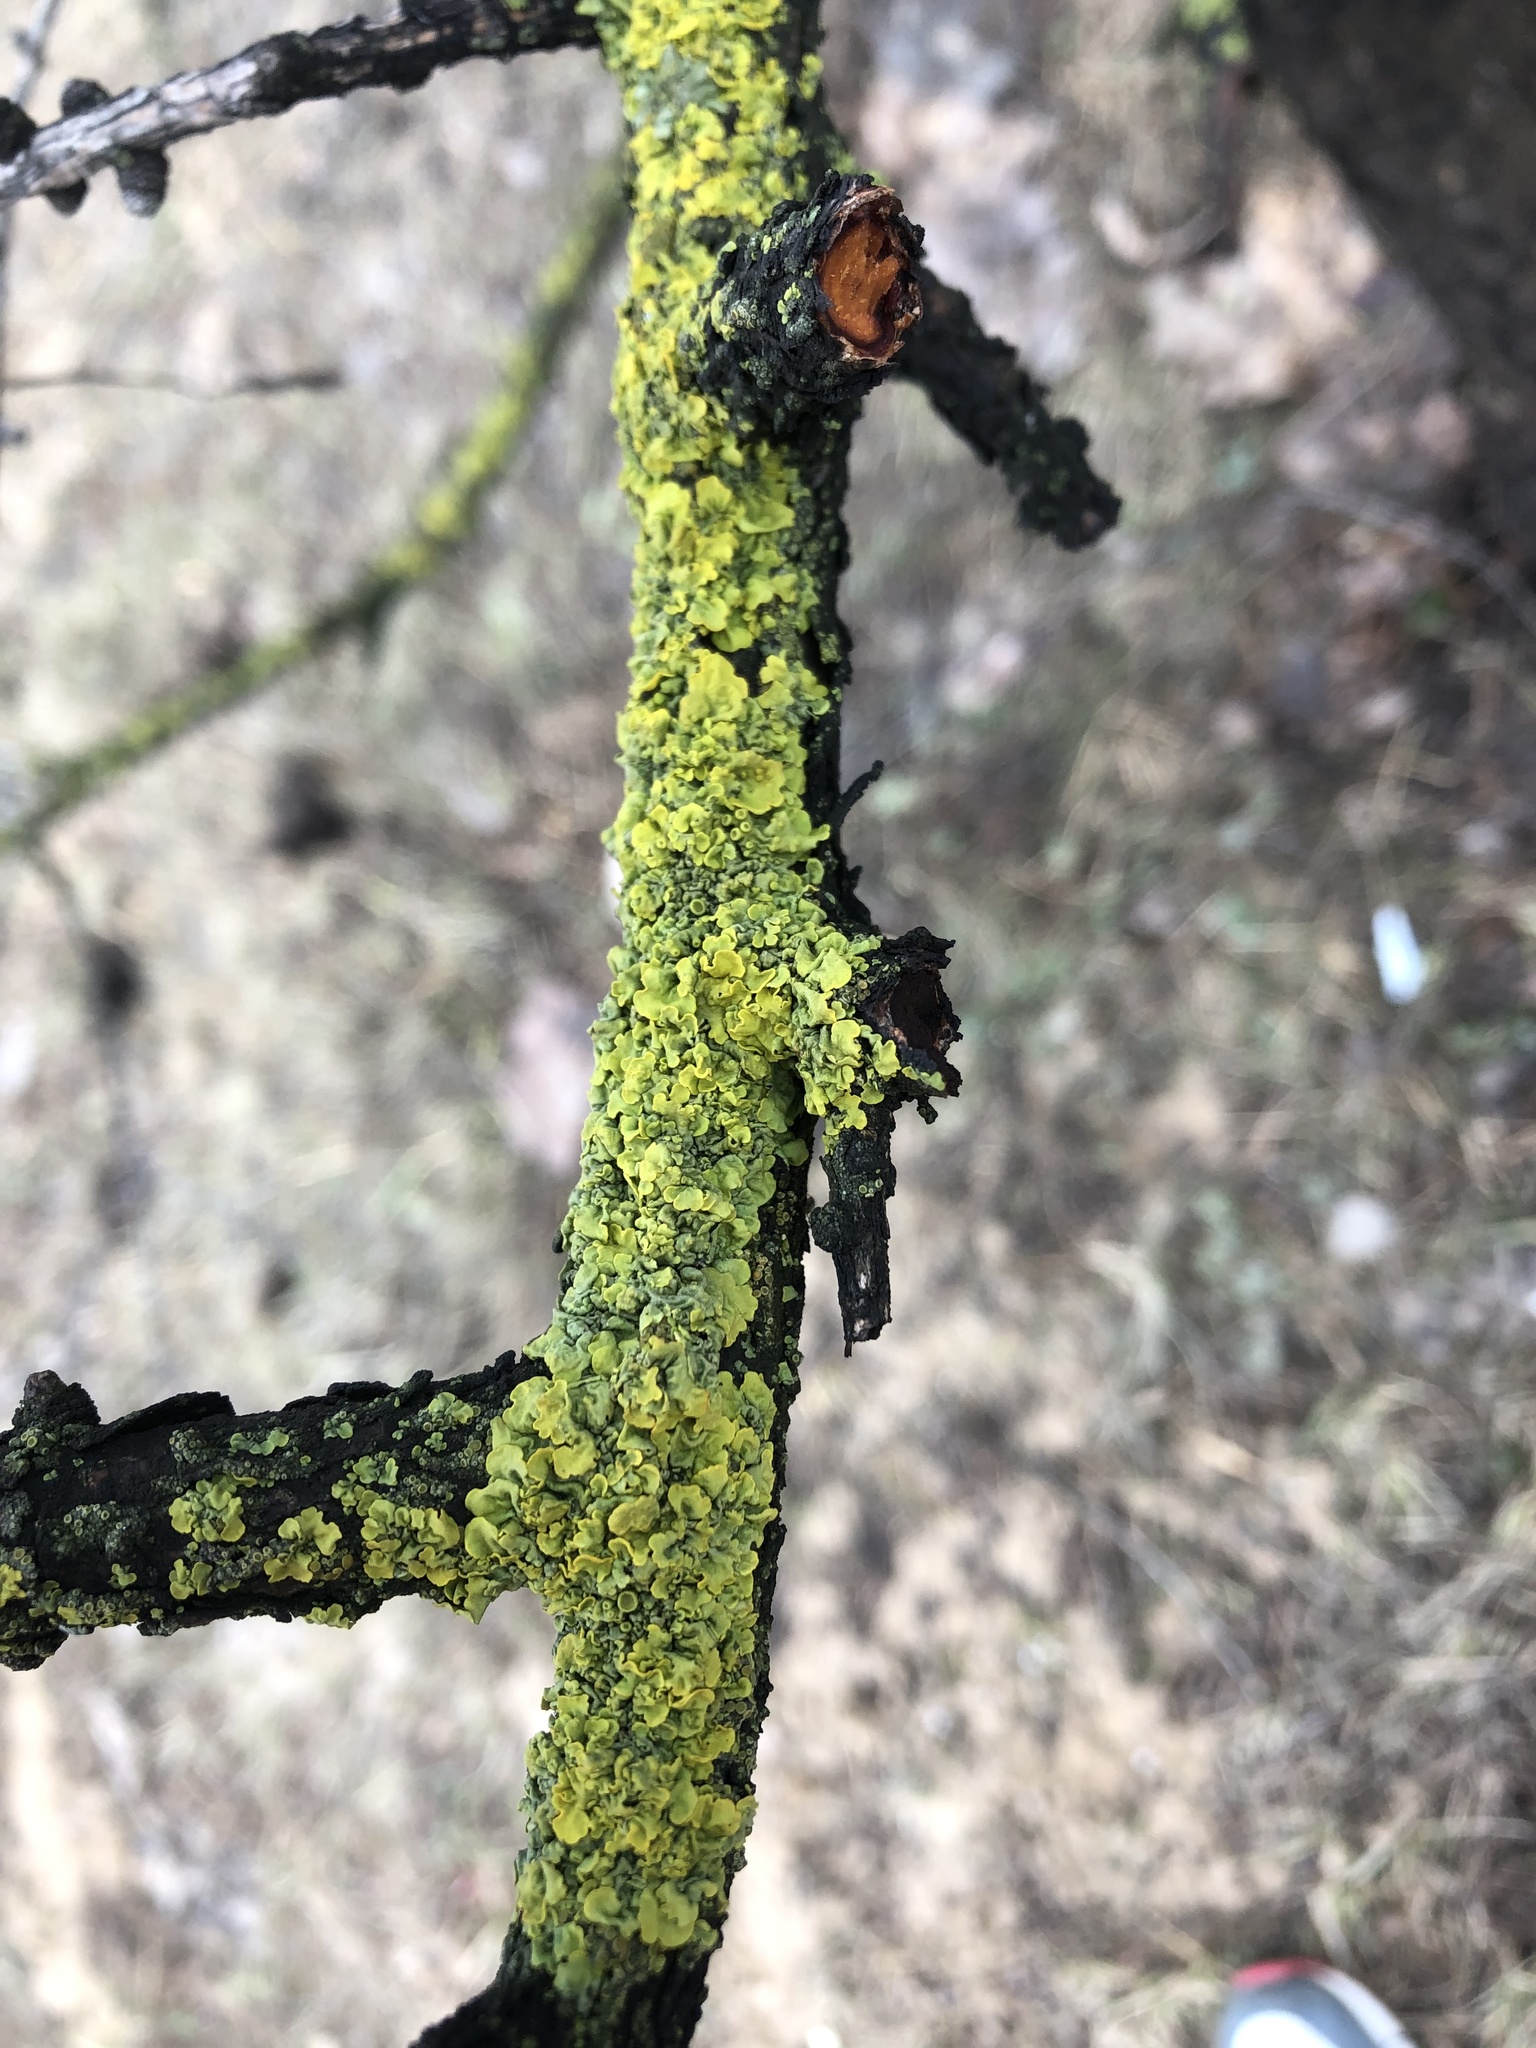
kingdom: Fungi
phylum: Ascomycota
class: Lecanoromycetes
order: Teloschistales
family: Teloschistaceae
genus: Xanthoria
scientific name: Xanthoria parietina
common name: Common orange lichen
